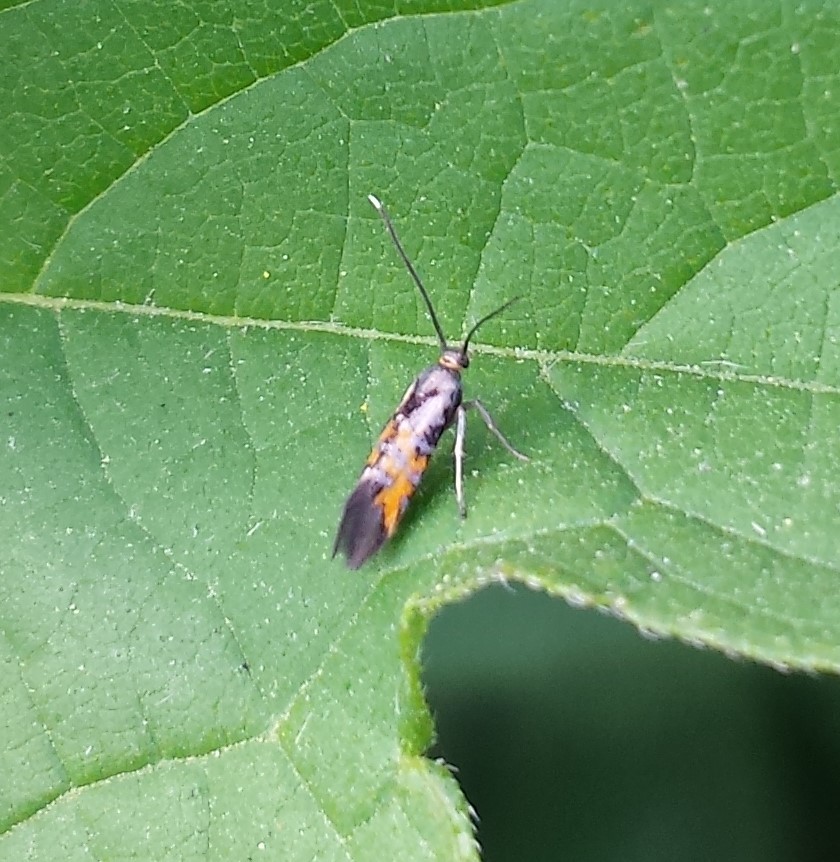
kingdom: Animalia
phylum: Arthropoda
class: Insecta
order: Lepidoptera
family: Heliodinidae
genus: Neoheliodines
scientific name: Neoheliodines cliffordi
